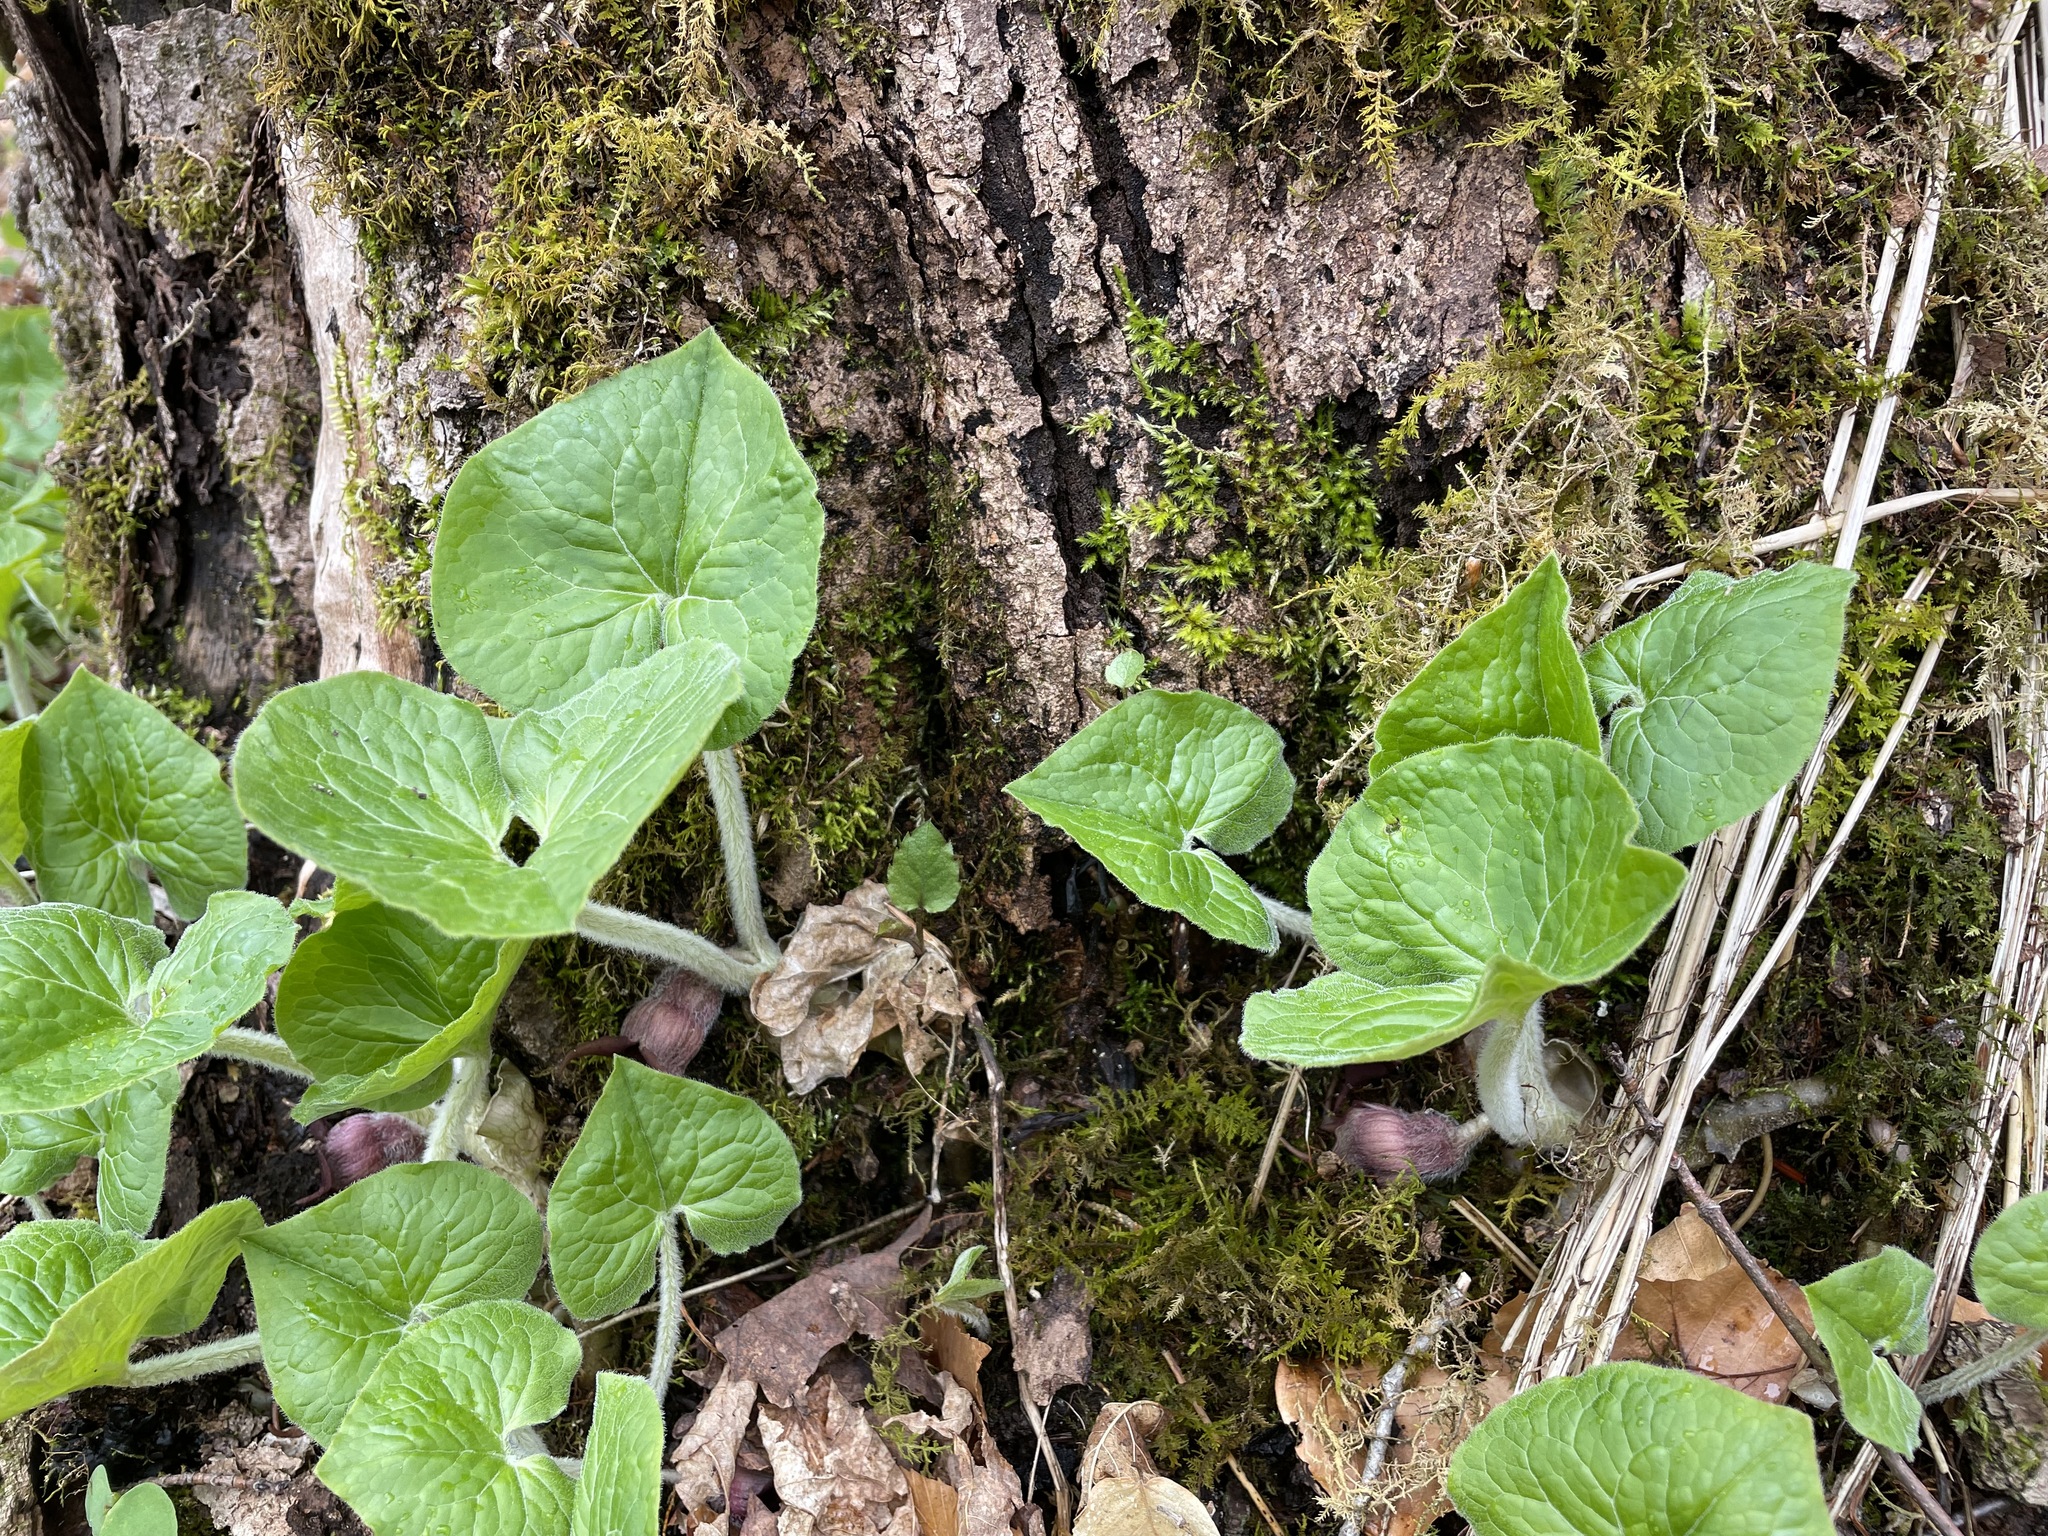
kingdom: Plantae
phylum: Tracheophyta
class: Magnoliopsida
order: Piperales
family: Aristolochiaceae
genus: Asarum
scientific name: Asarum canadense
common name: Wild ginger
